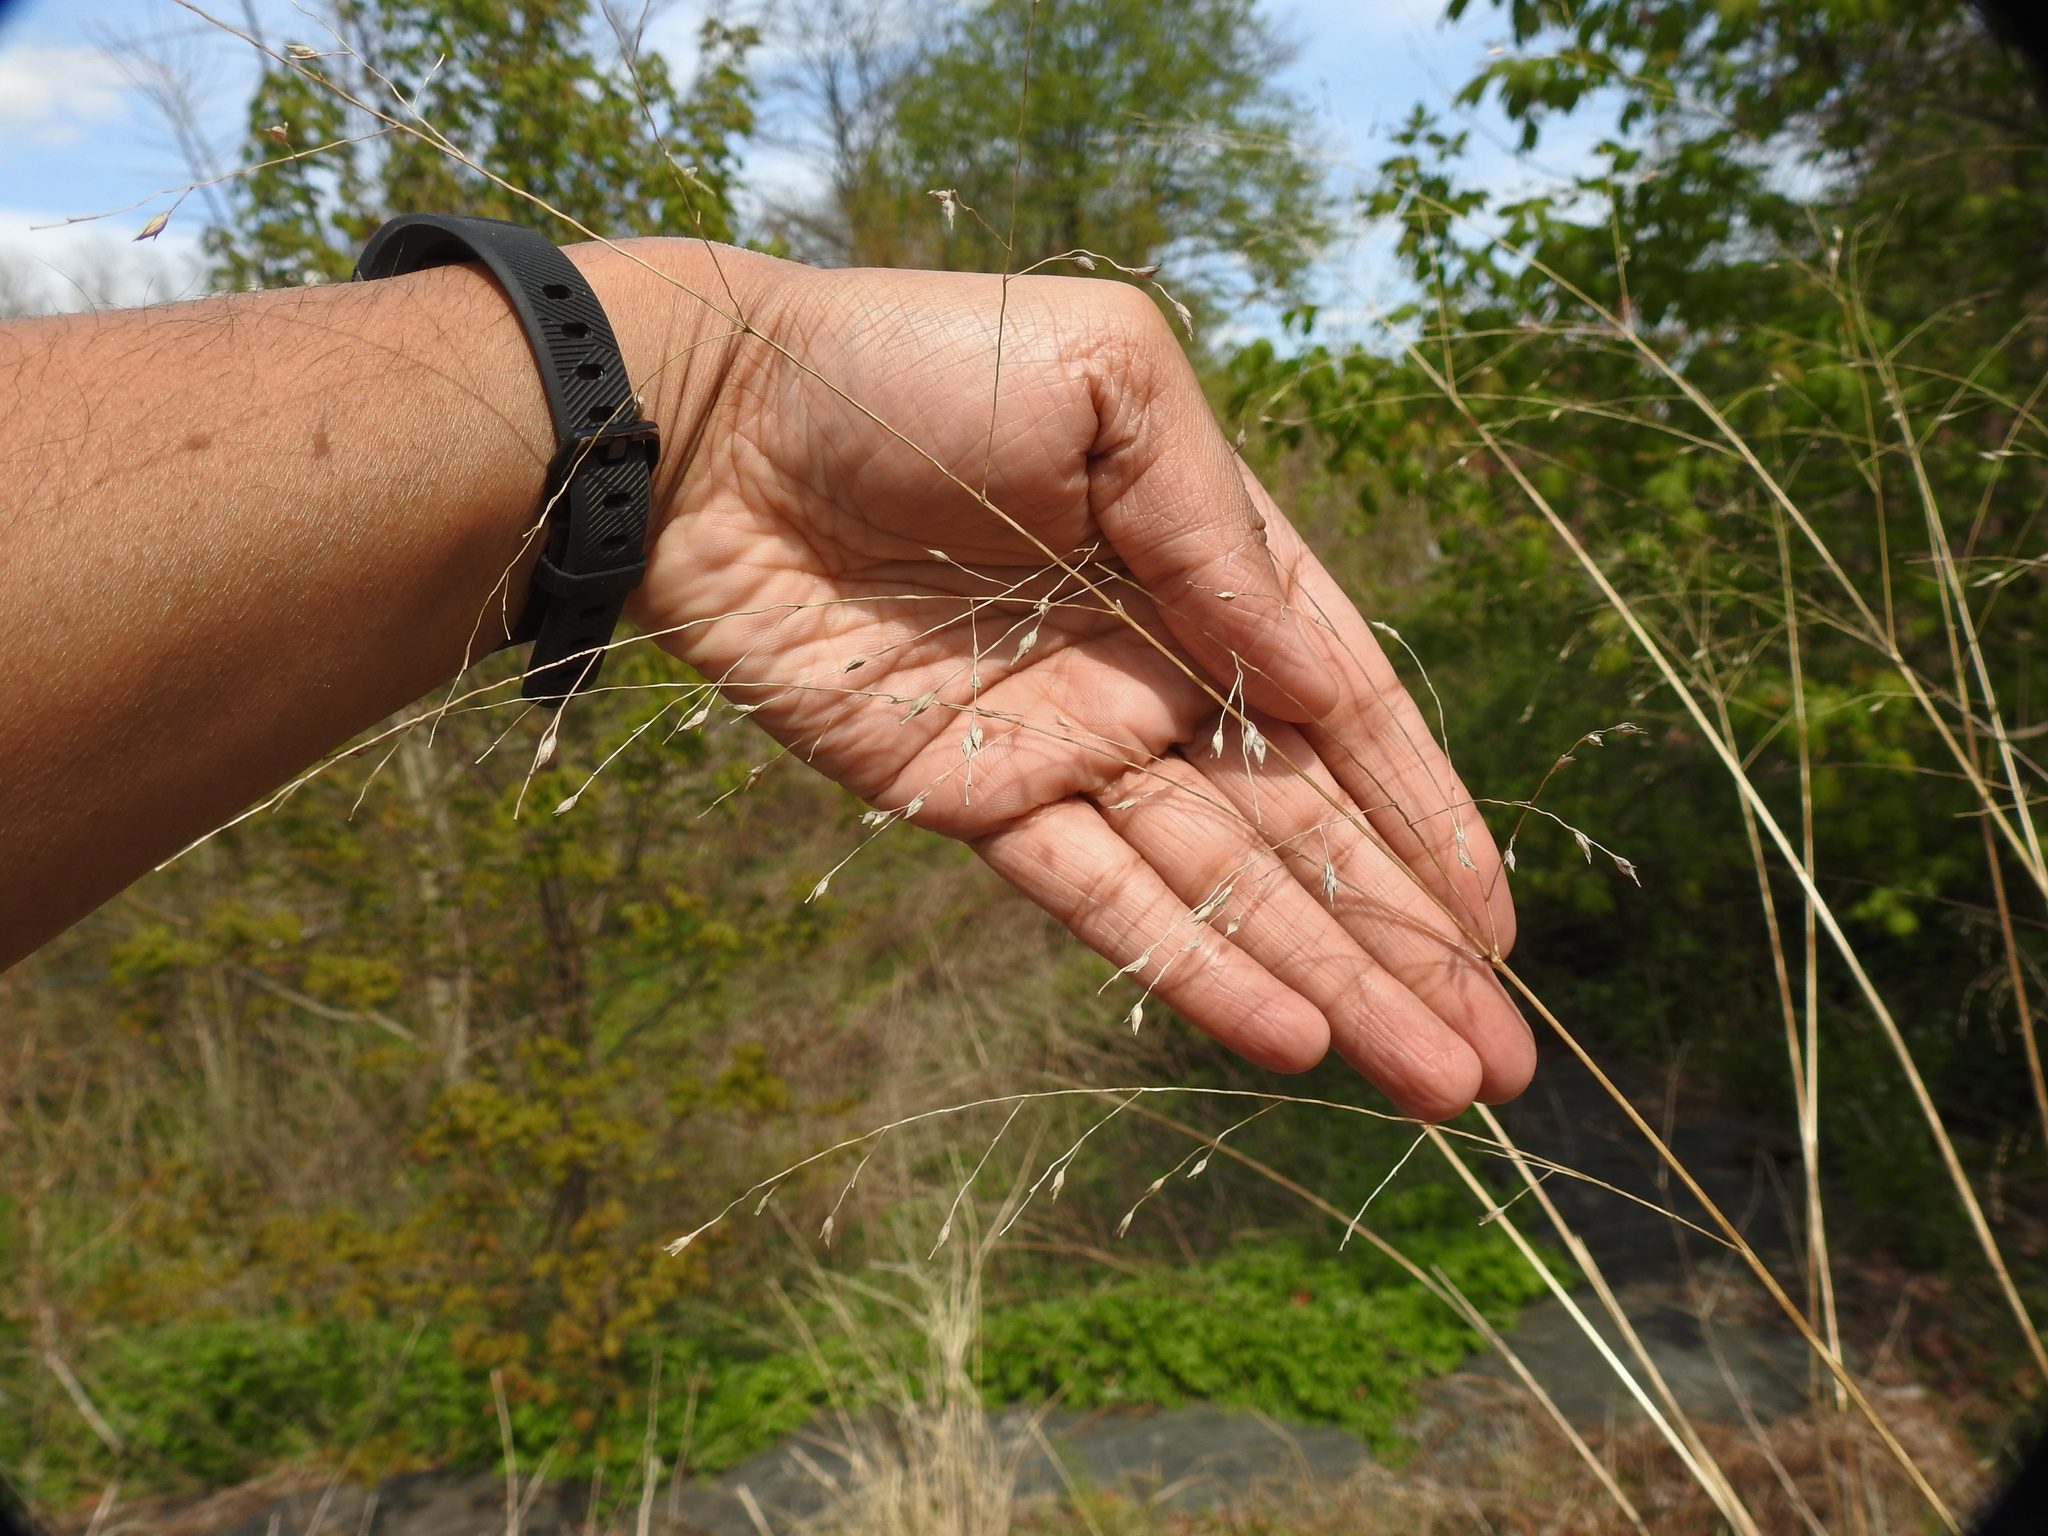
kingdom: Plantae
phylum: Tracheophyta
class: Liliopsida
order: Poales
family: Poaceae
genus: Panicum
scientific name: Panicum virgatum
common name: Switchgrass
